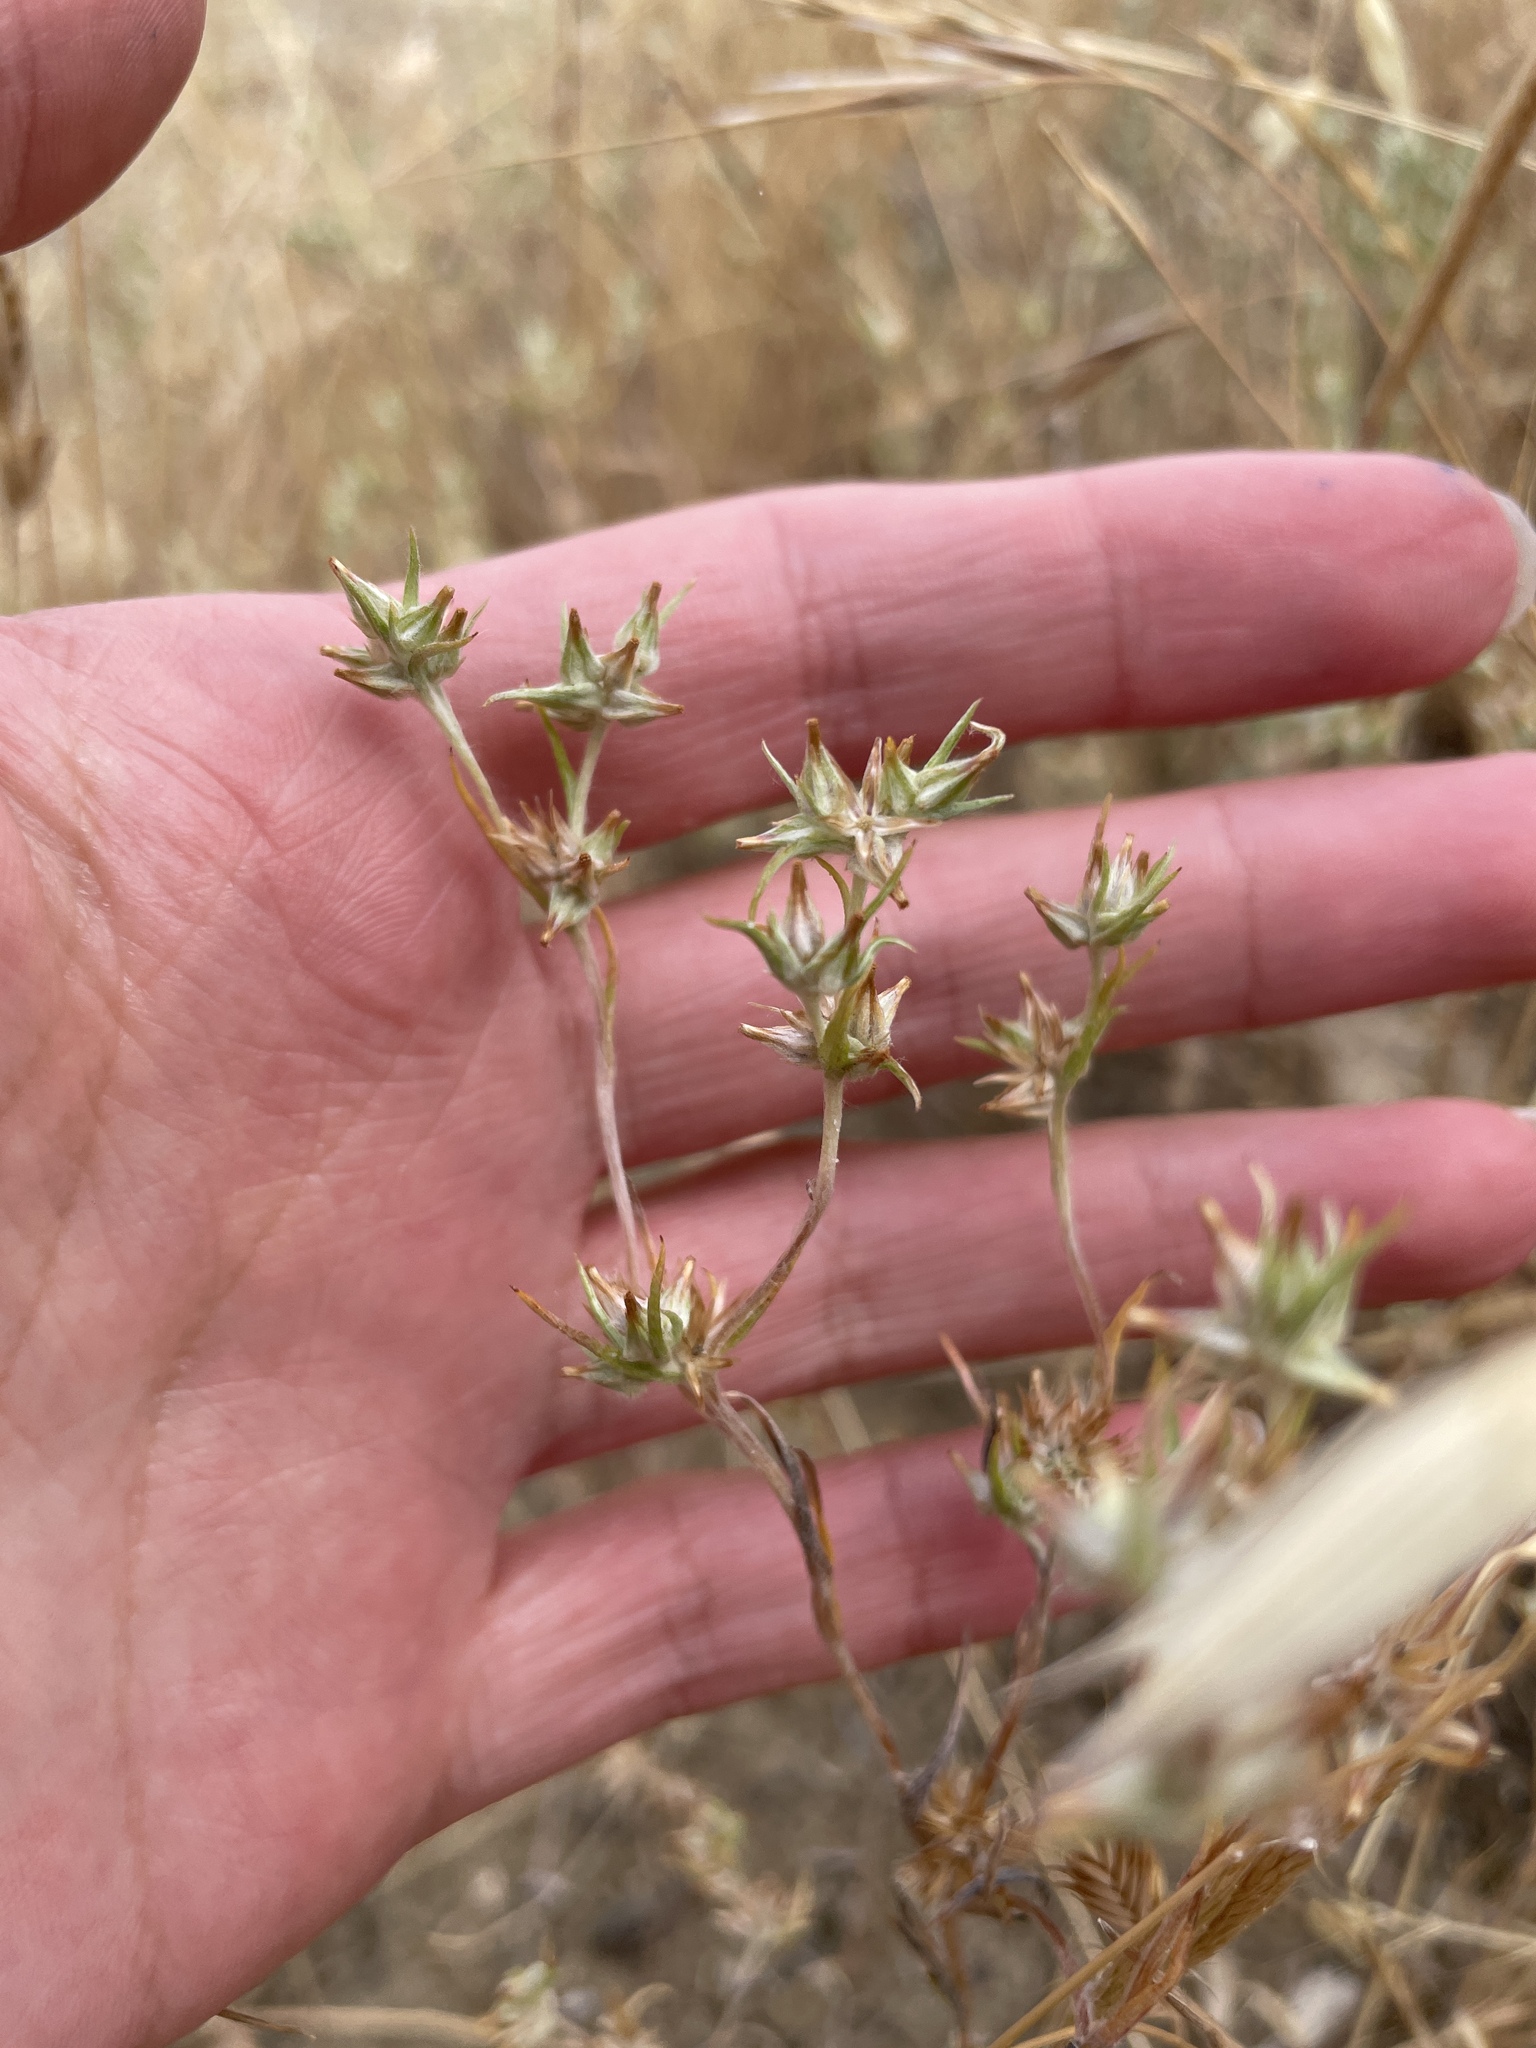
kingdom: Plantae
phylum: Tracheophyta
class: Magnoliopsida
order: Asterales
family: Asteraceae
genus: Logfia
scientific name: Logfia gallica
